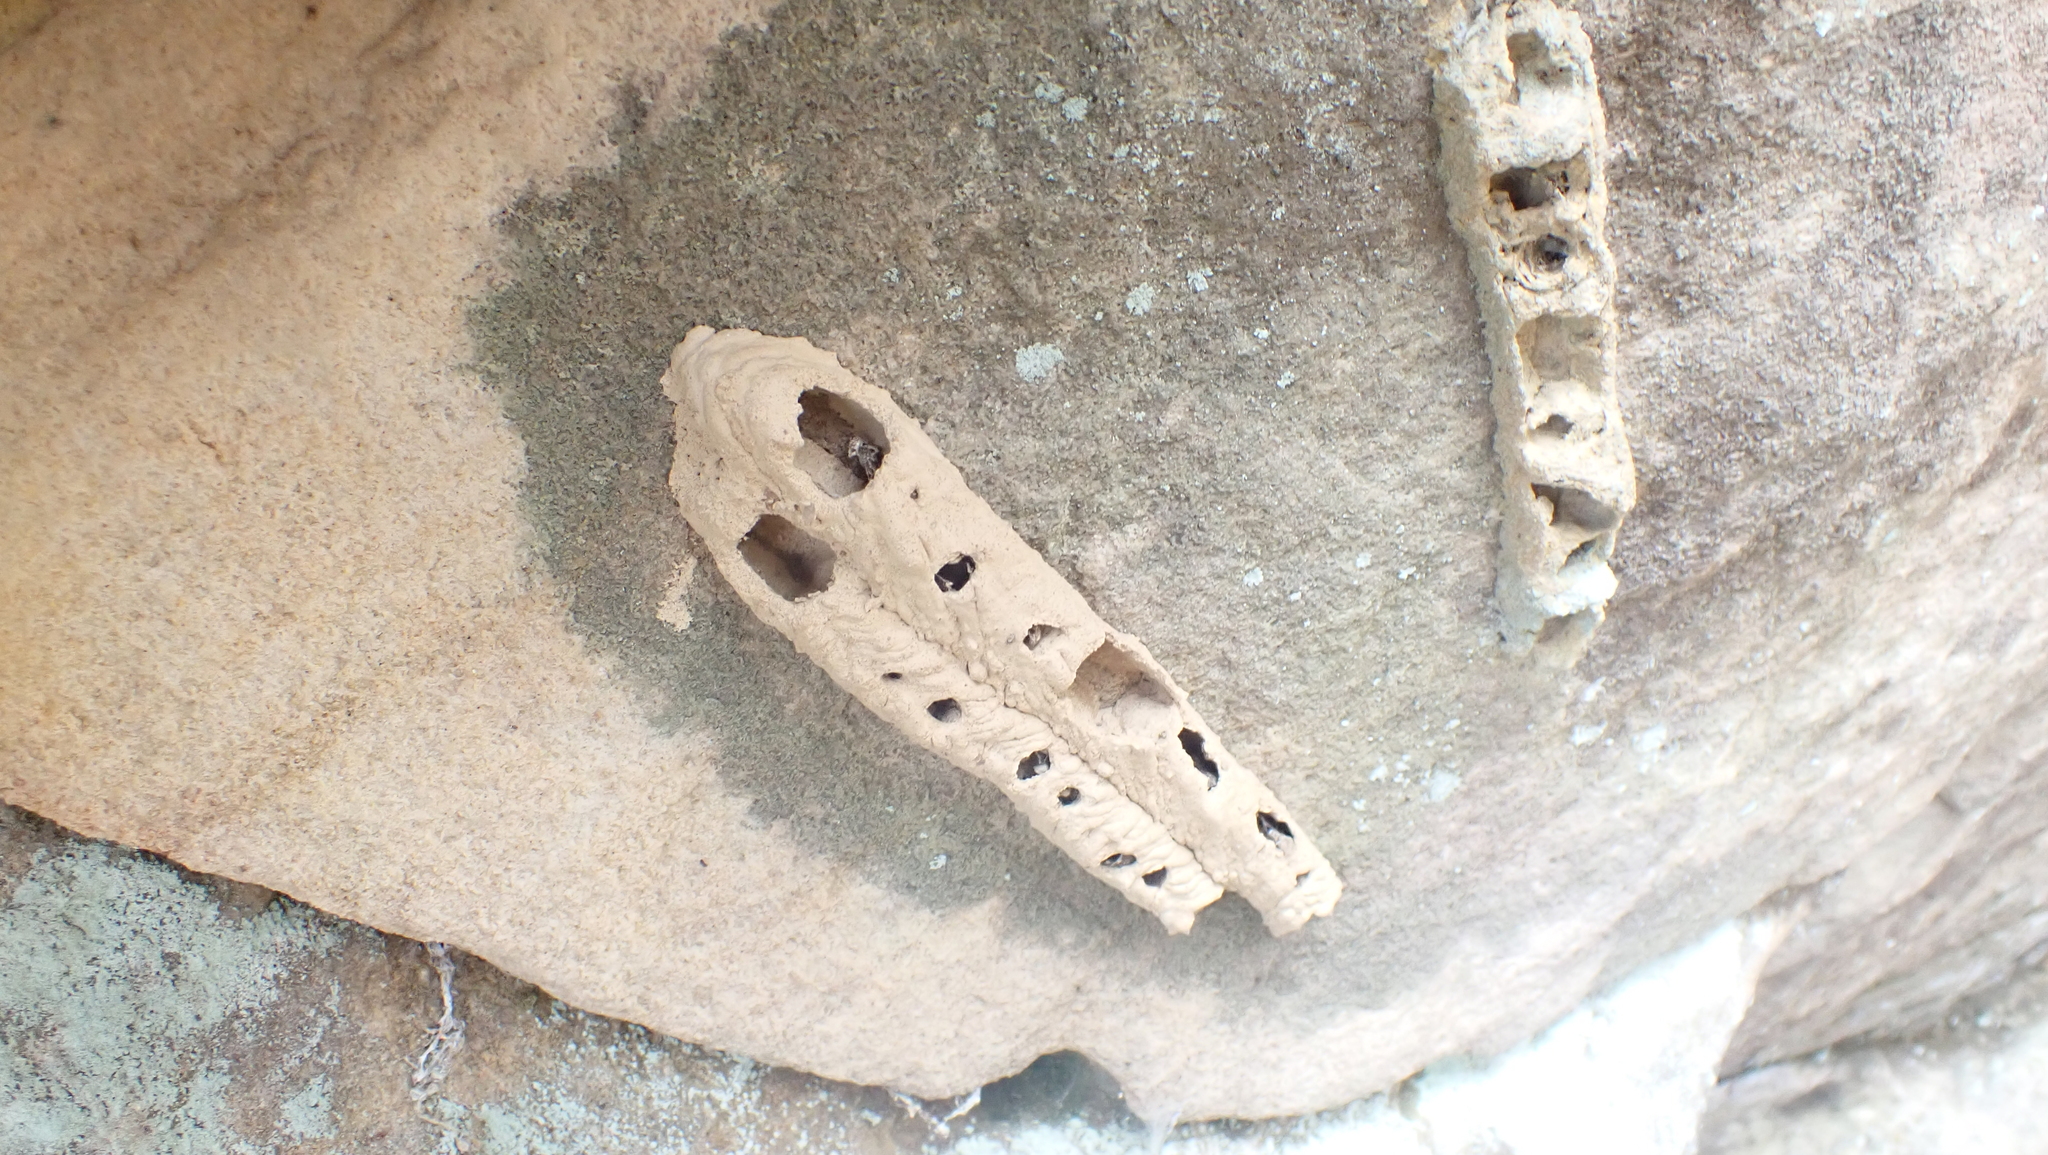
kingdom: Animalia
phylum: Arthropoda
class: Insecta
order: Hymenoptera
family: Crabronidae
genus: Trypoxylon
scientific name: Trypoxylon politum
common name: Organ-pipe mud-dauber wasp
